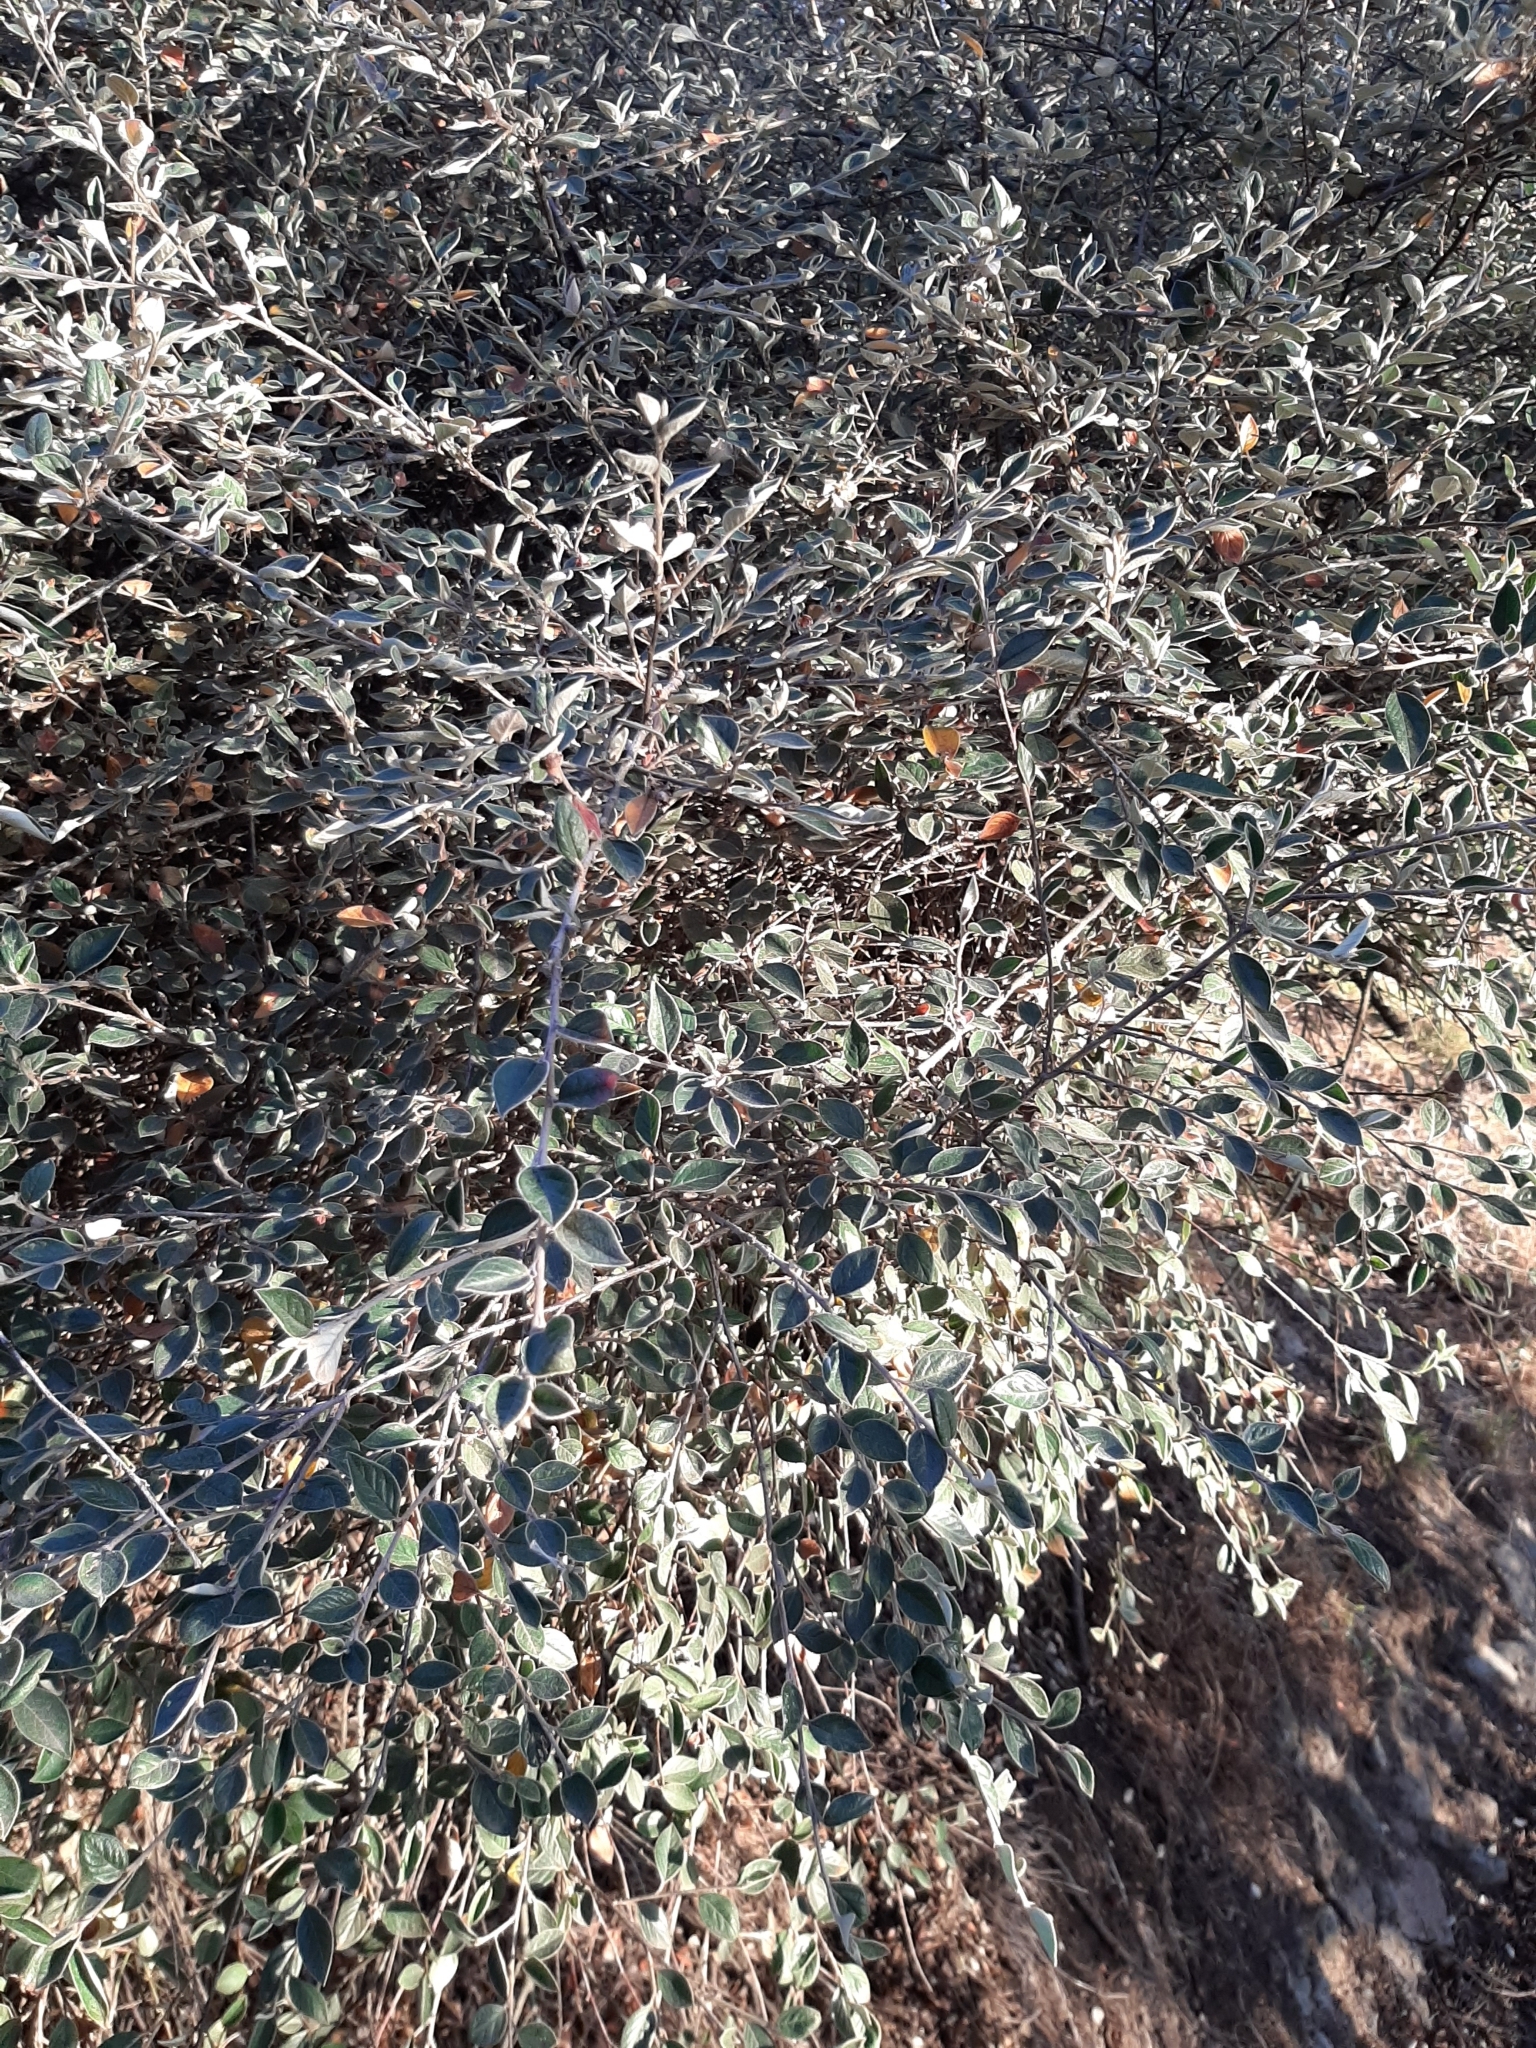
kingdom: Plantae
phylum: Tracheophyta
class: Magnoliopsida
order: Rosales
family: Rosaceae
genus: Cotoneaster
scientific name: Cotoneaster franchetii
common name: Franchet's cotoneaster
